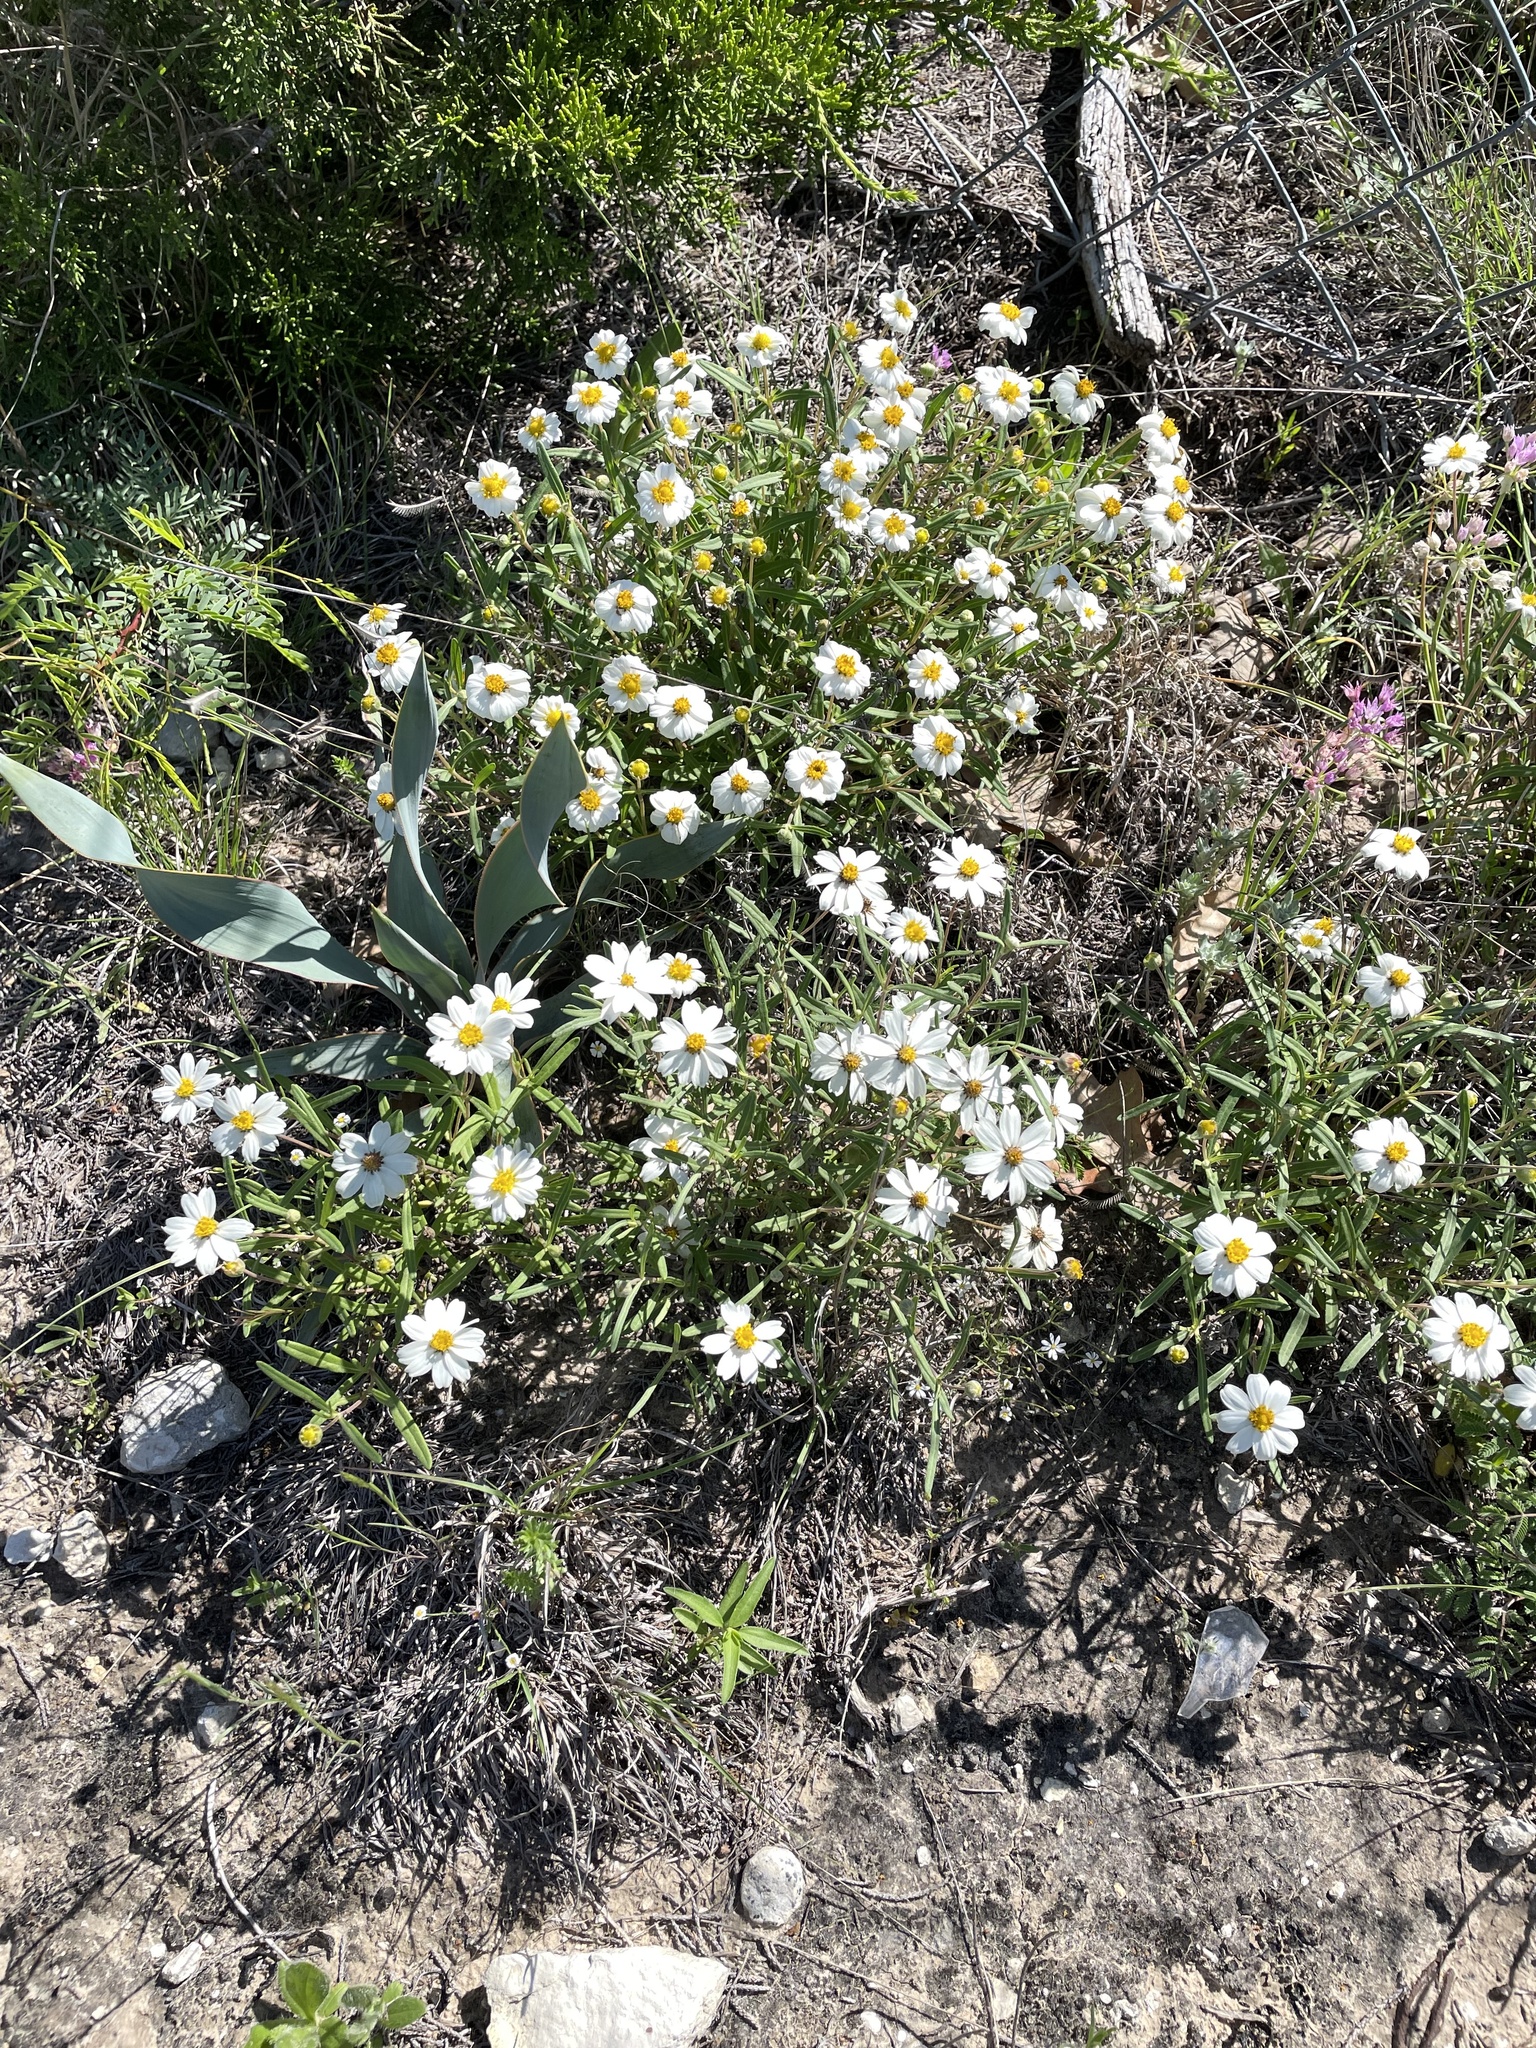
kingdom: Plantae
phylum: Tracheophyta
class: Magnoliopsida
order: Asterales
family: Asteraceae
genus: Melampodium
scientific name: Melampodium leucanthum
